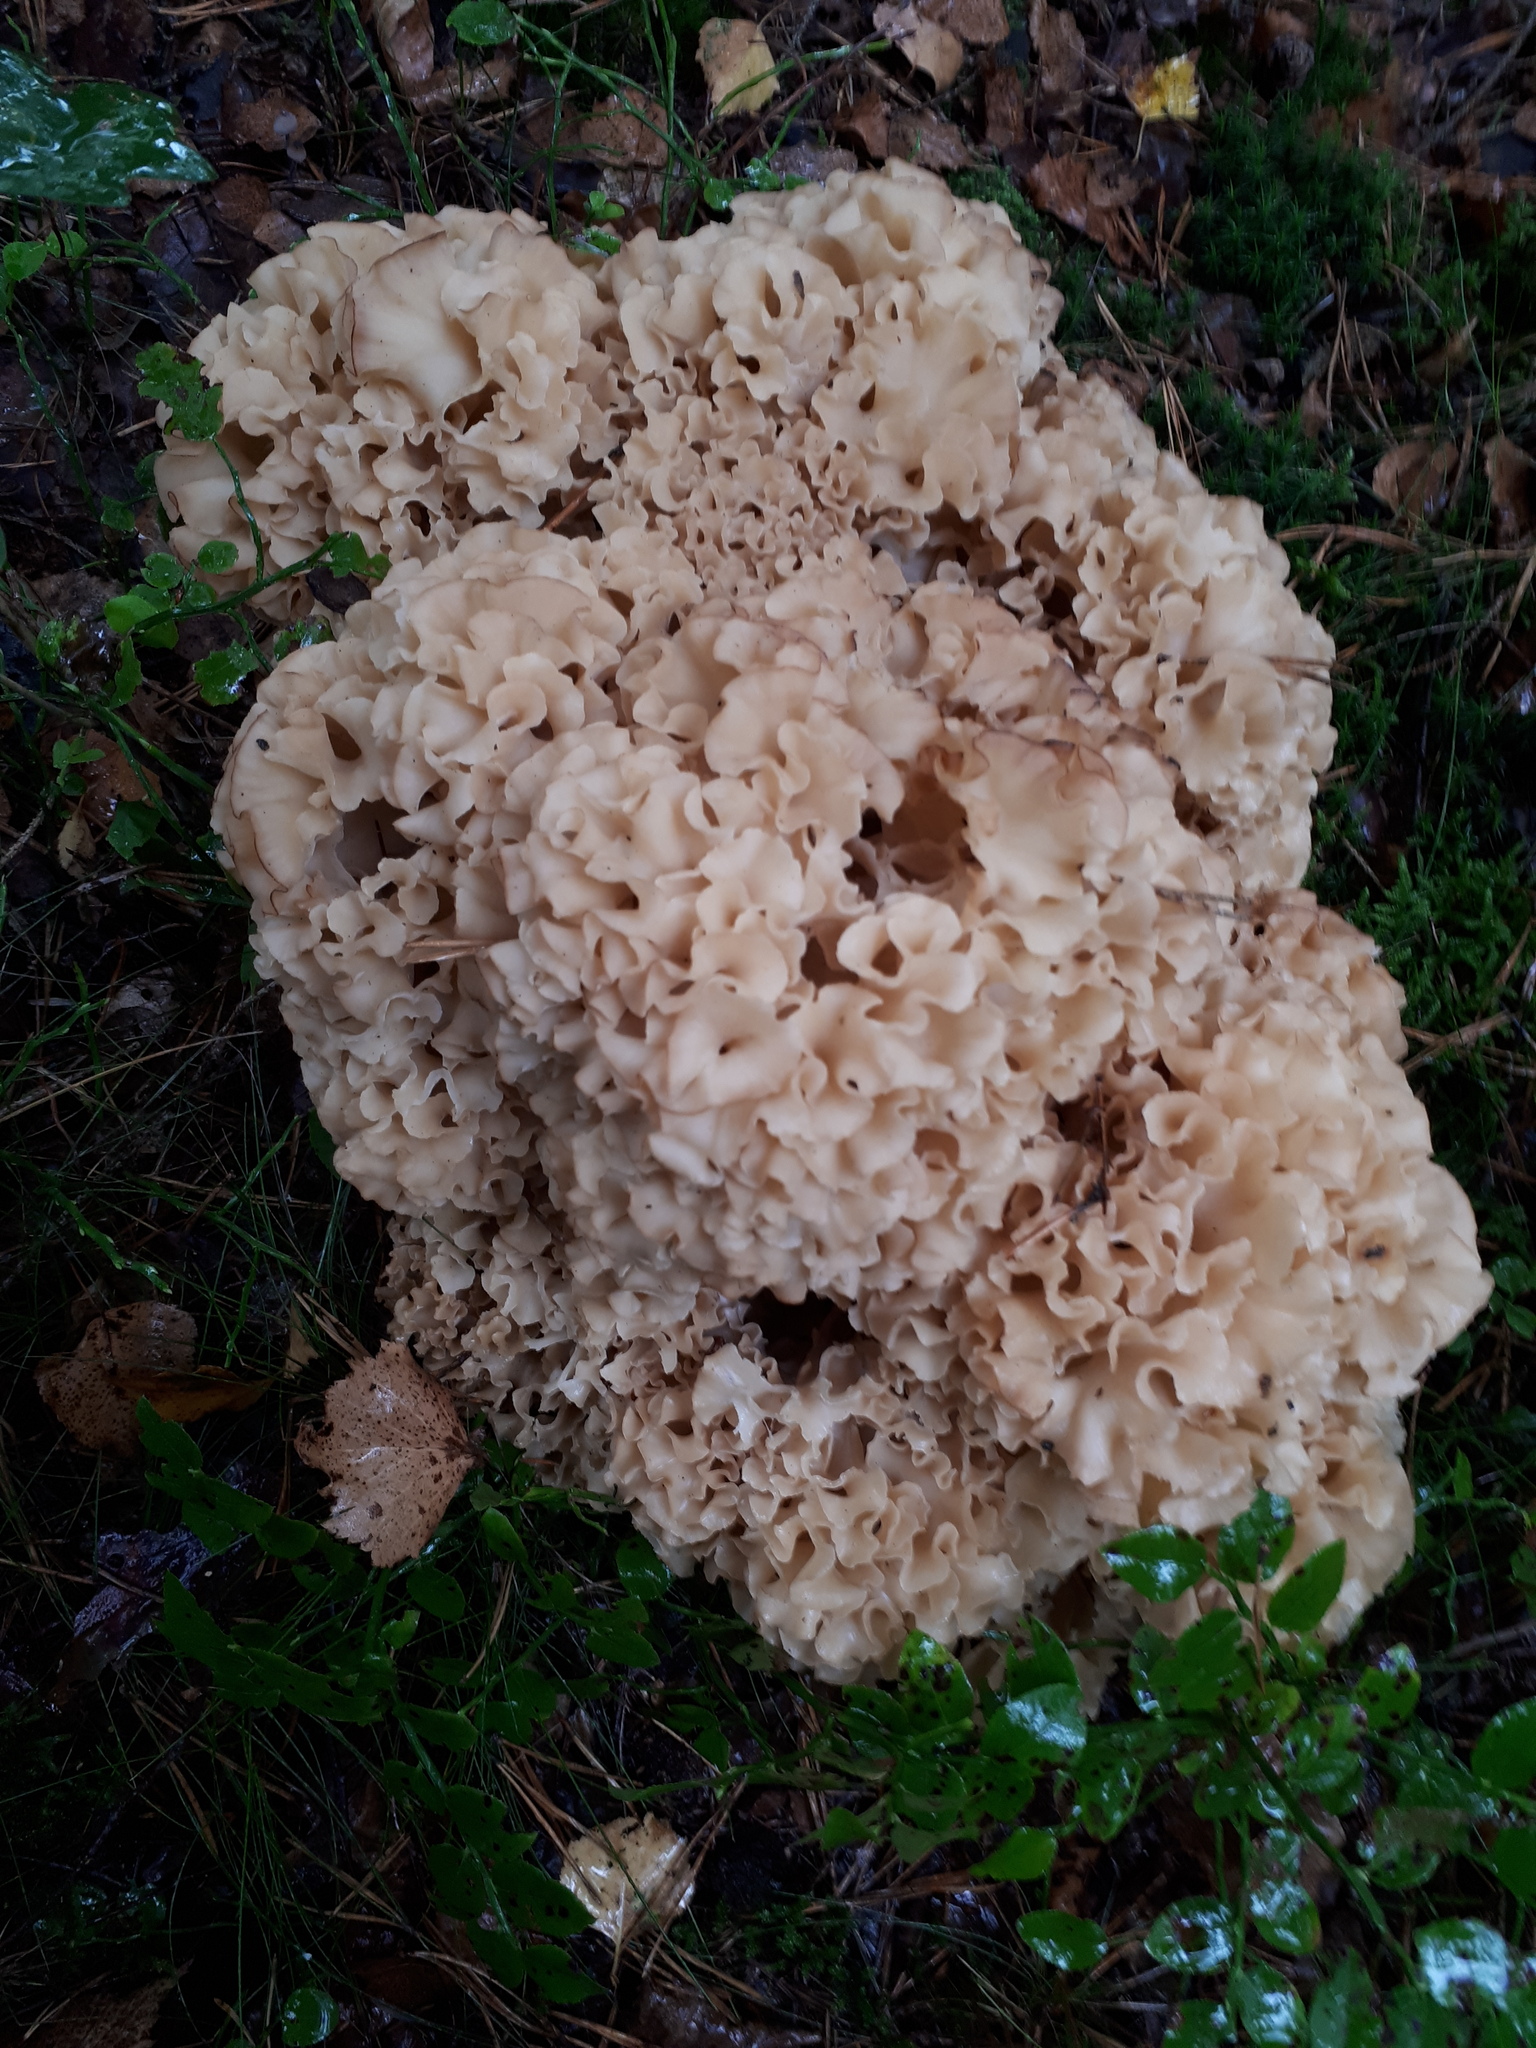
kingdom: Fungi
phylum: Basidiomycota
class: Agaricomycetes
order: Polyporales
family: Sparassidaceae
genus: Sparassis
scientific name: Sparassis crispa
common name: Brain fungus
